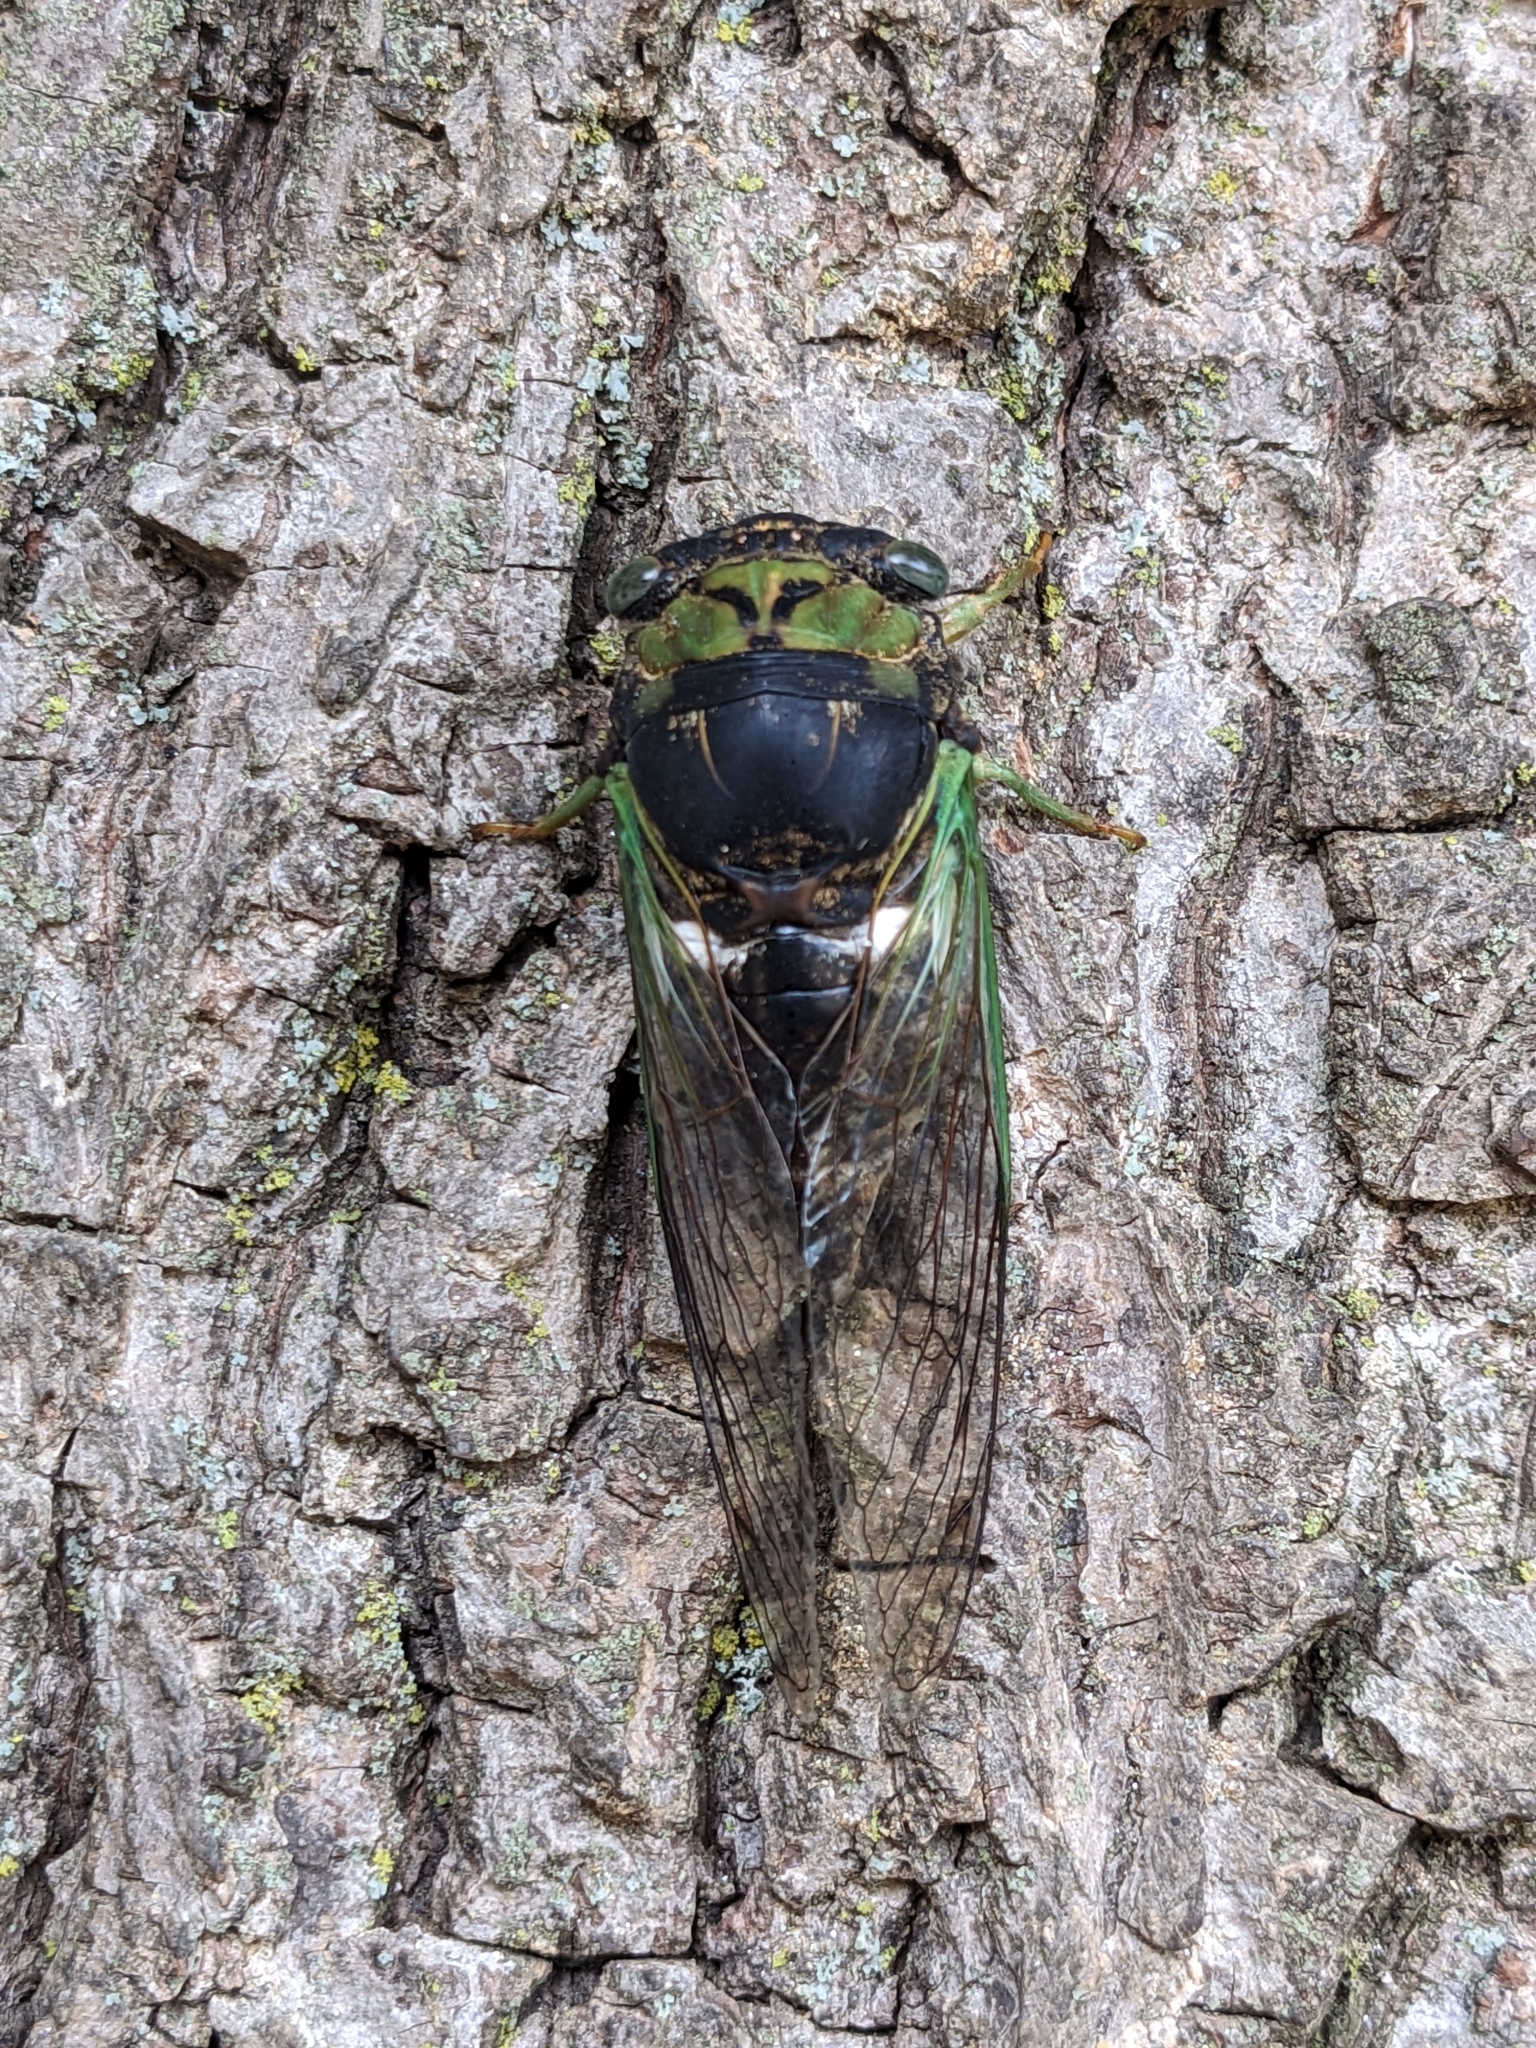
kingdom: Animalia
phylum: Arthropoda
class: Insecta
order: Hemiptera
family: Cicadidae
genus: Neotibicen
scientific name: Neotibicen tibicen
